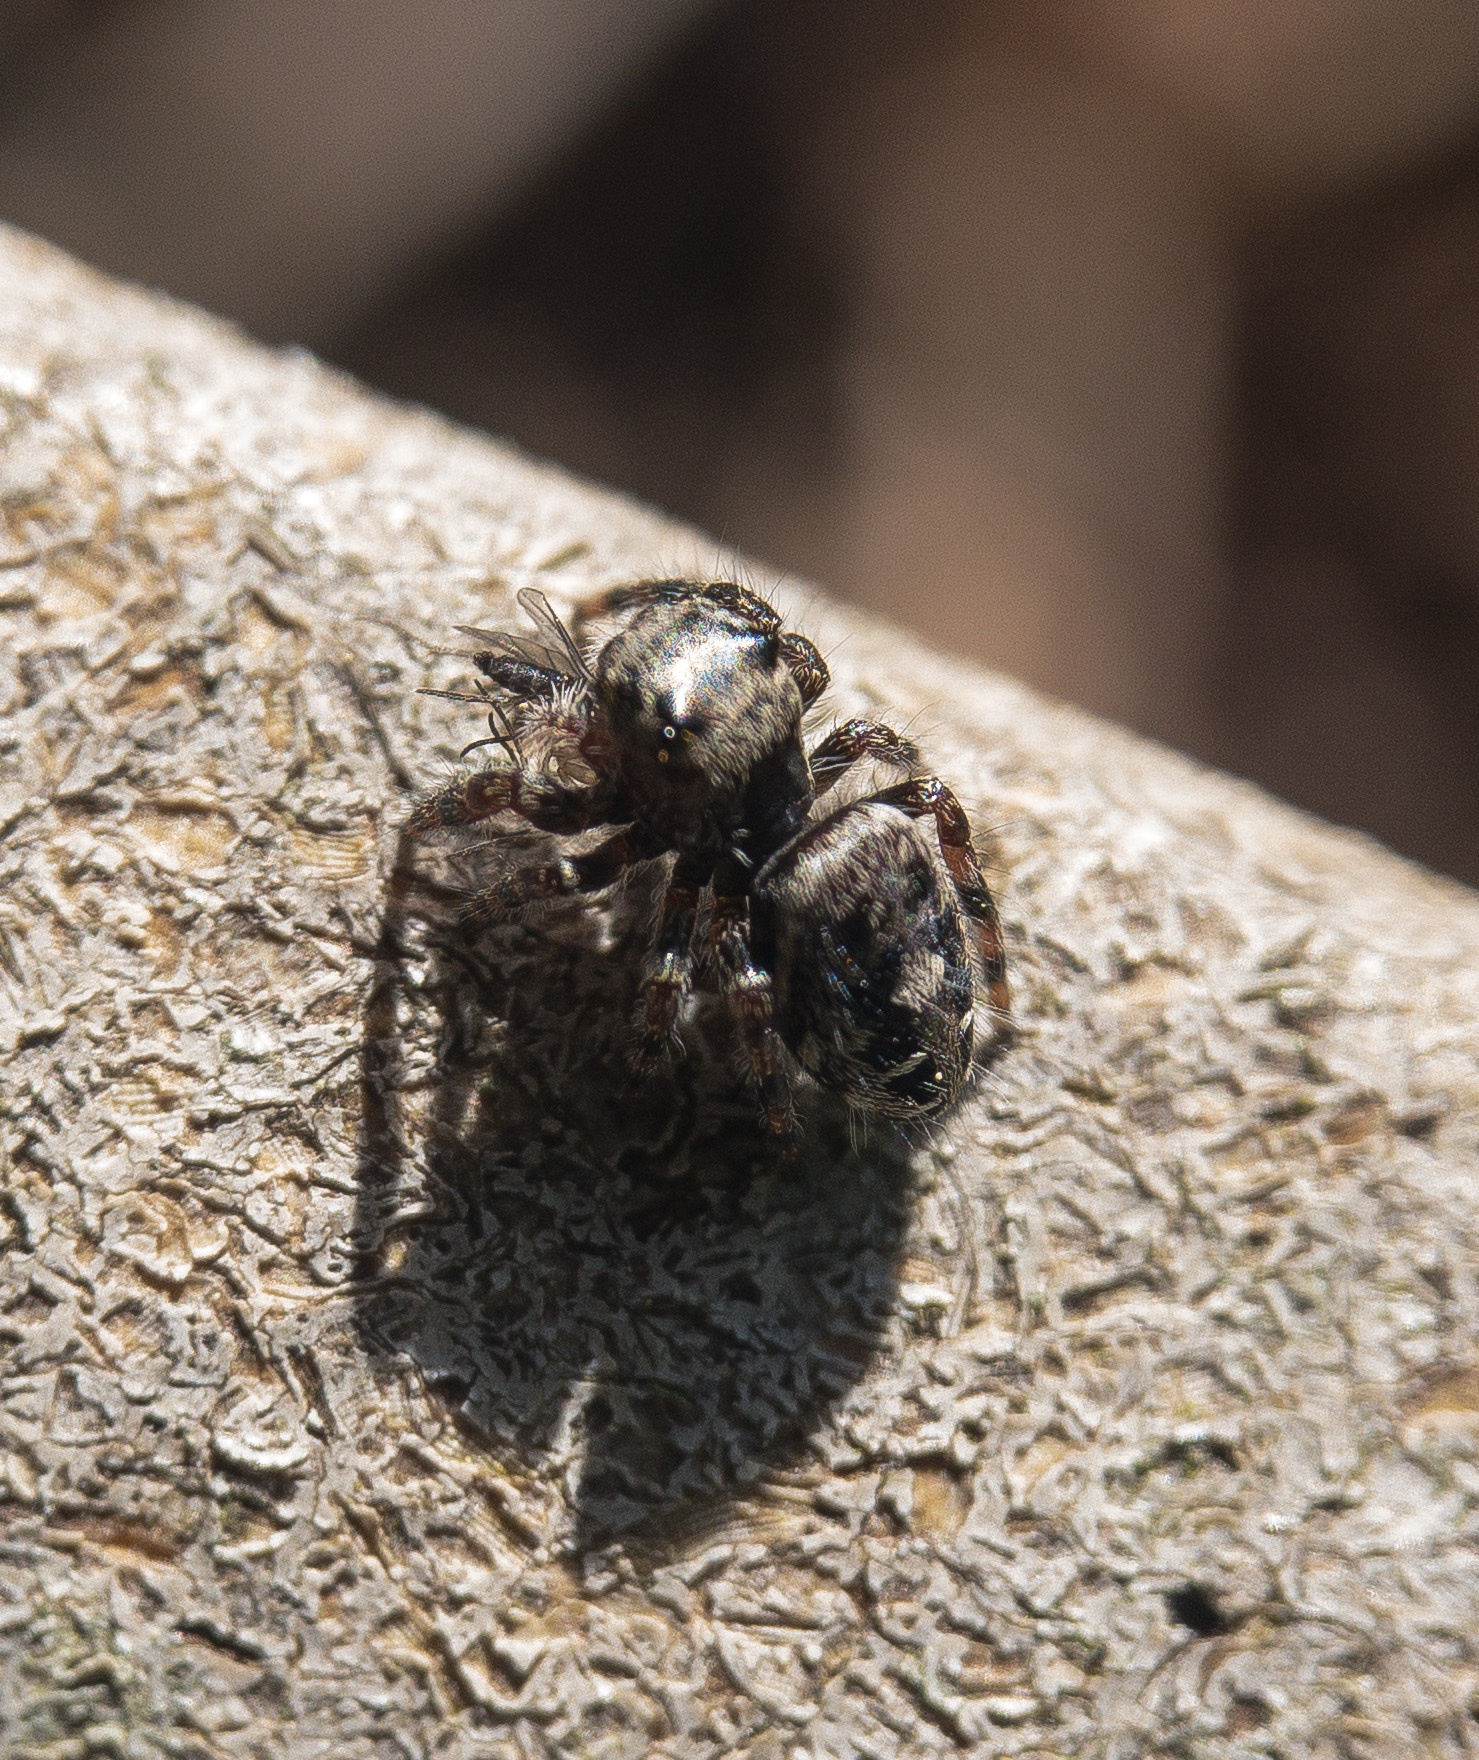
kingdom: Animalia
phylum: Arthropoda
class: Arachnida
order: Araneae
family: Salticidae
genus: Phidippus
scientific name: Phidippus putnami
